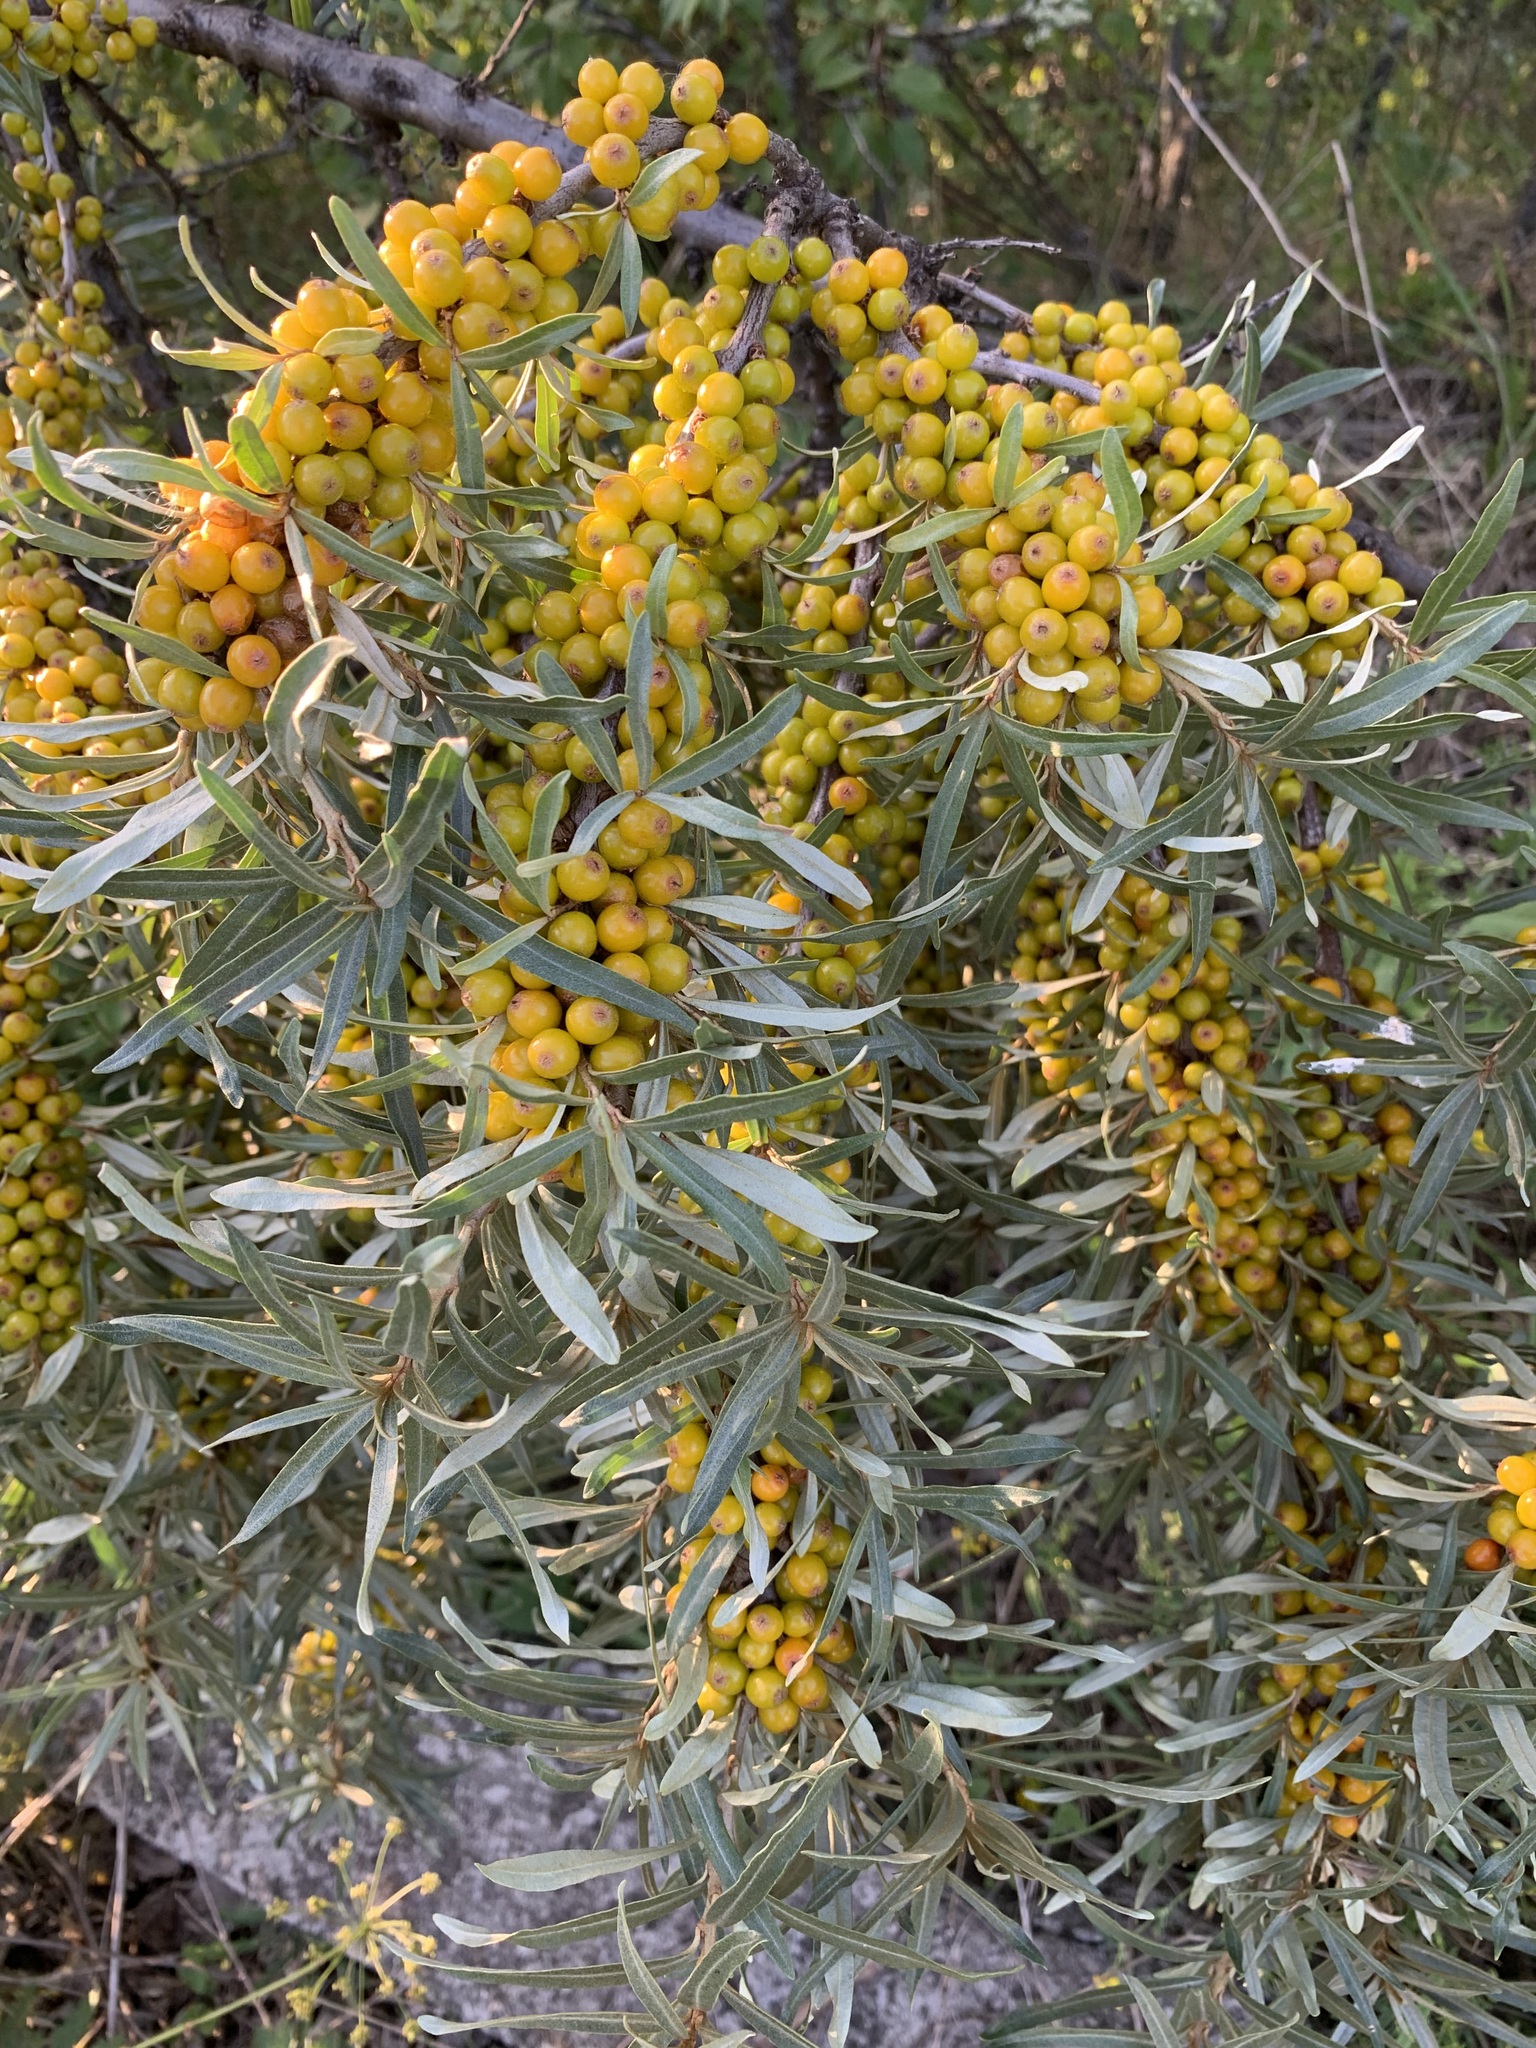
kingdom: Plantae
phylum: Tracheophyta
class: Magnoliopsida
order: Rosales
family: Elaeagnaceae
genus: Hippophae
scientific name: Hippophae rhamnoides
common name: Sea-buckthorn
